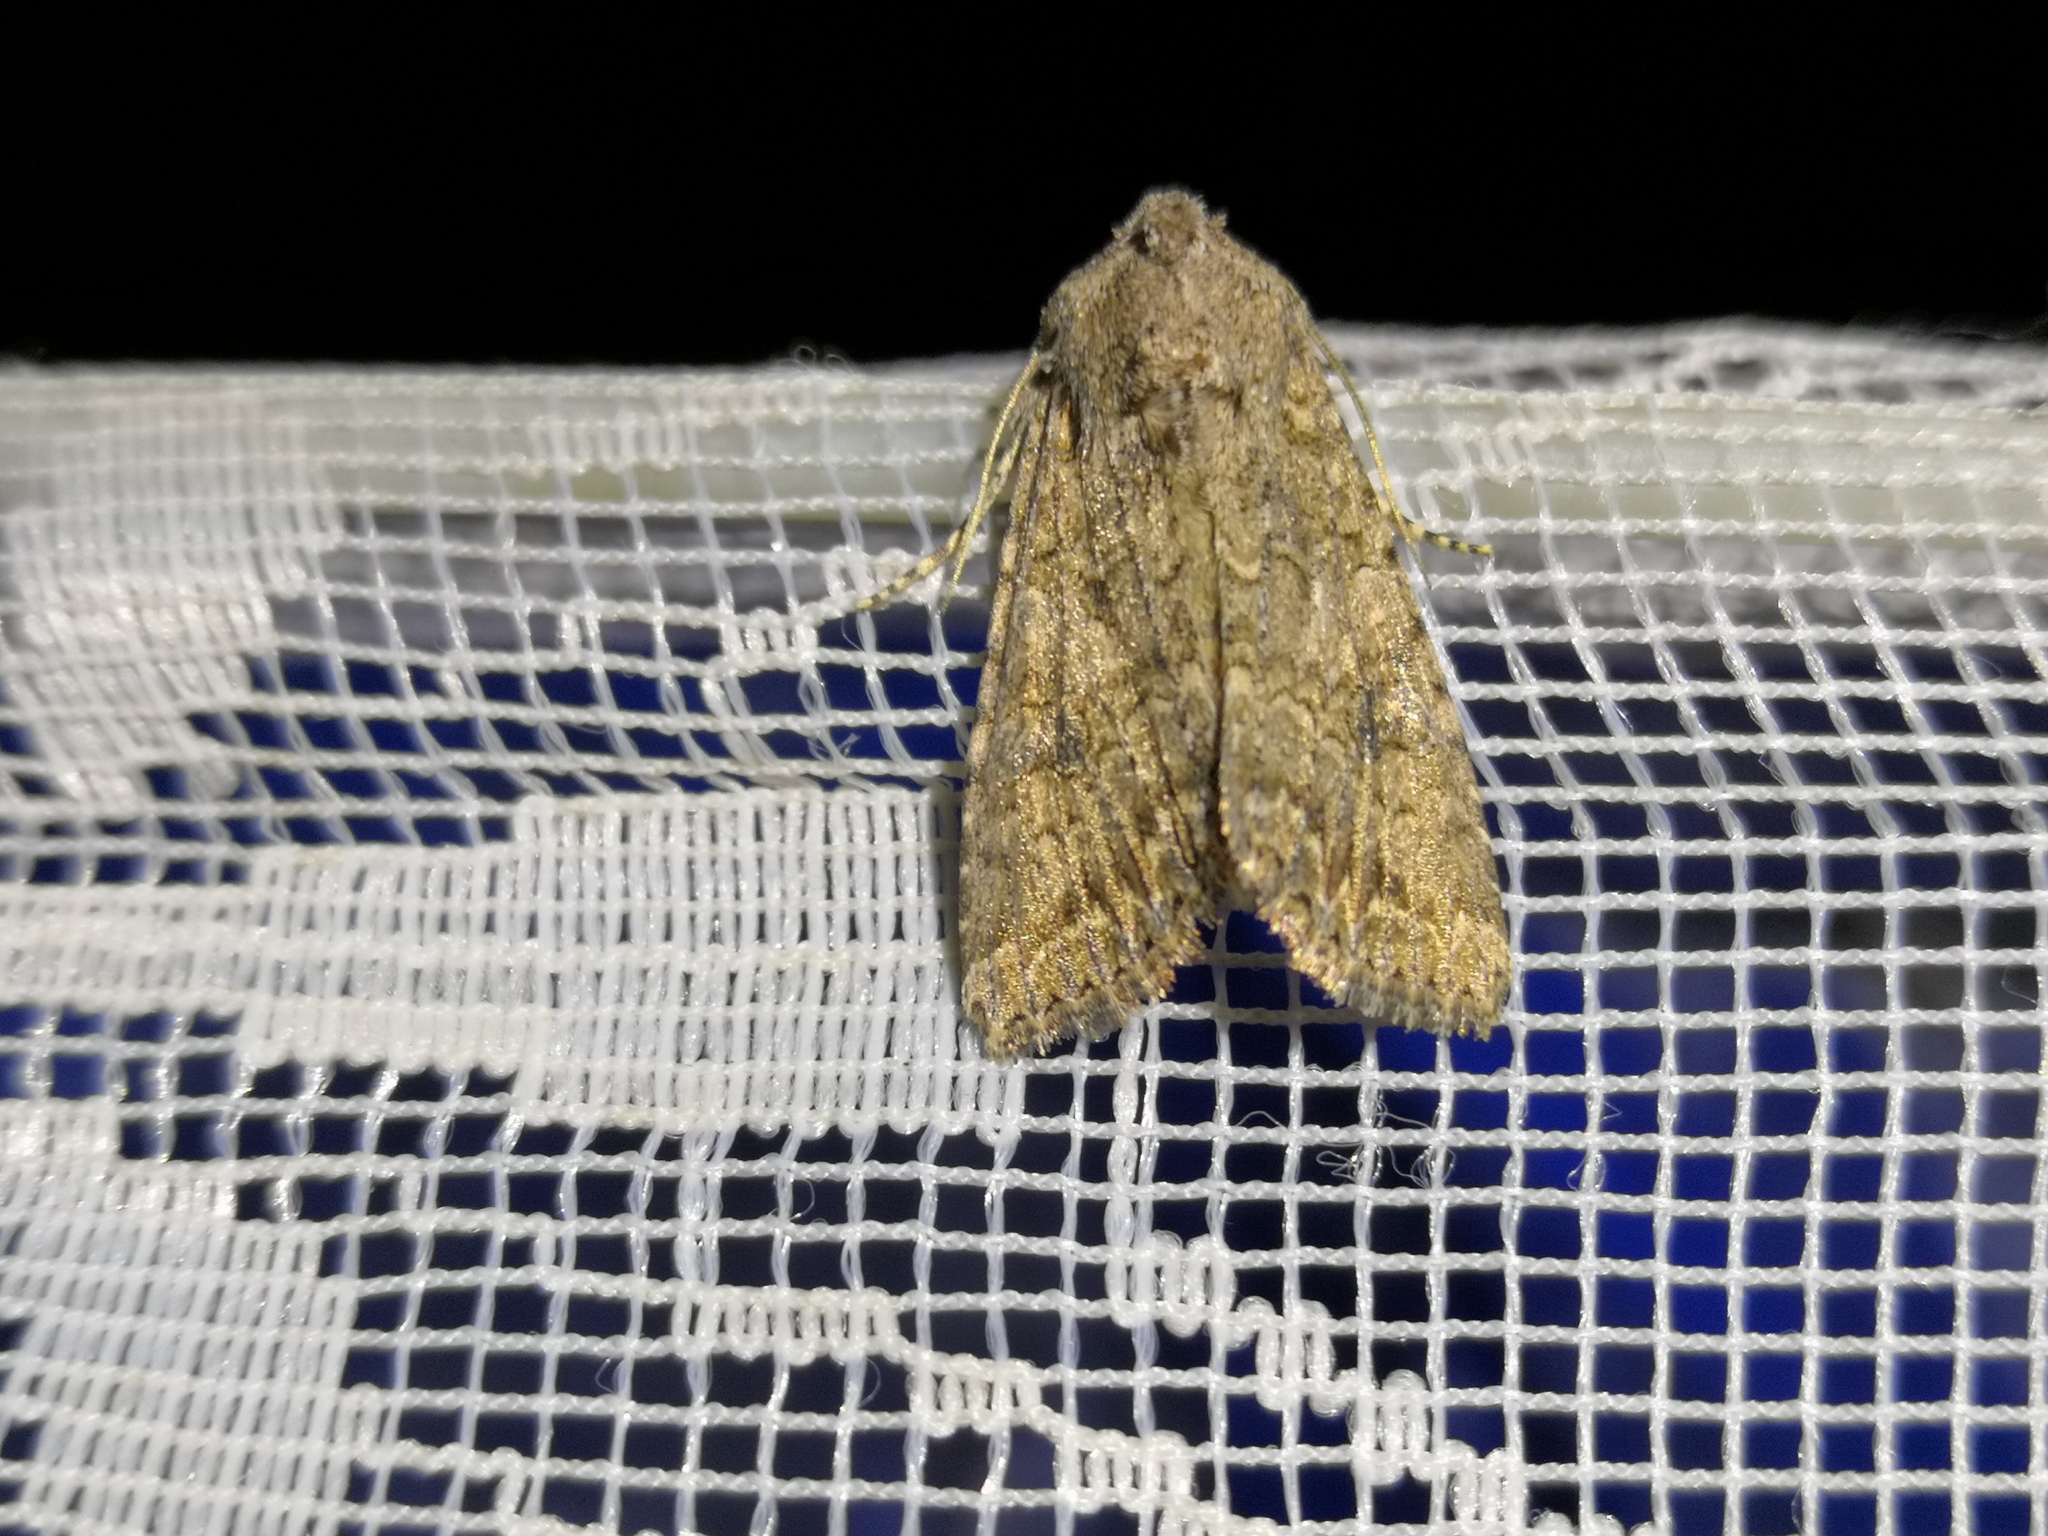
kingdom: Animalia
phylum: Arthropoda
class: Insecta
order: Lepidoptera
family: Noctuidae
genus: Anarta
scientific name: Anarta trifolii
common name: Clover cutworm moth
